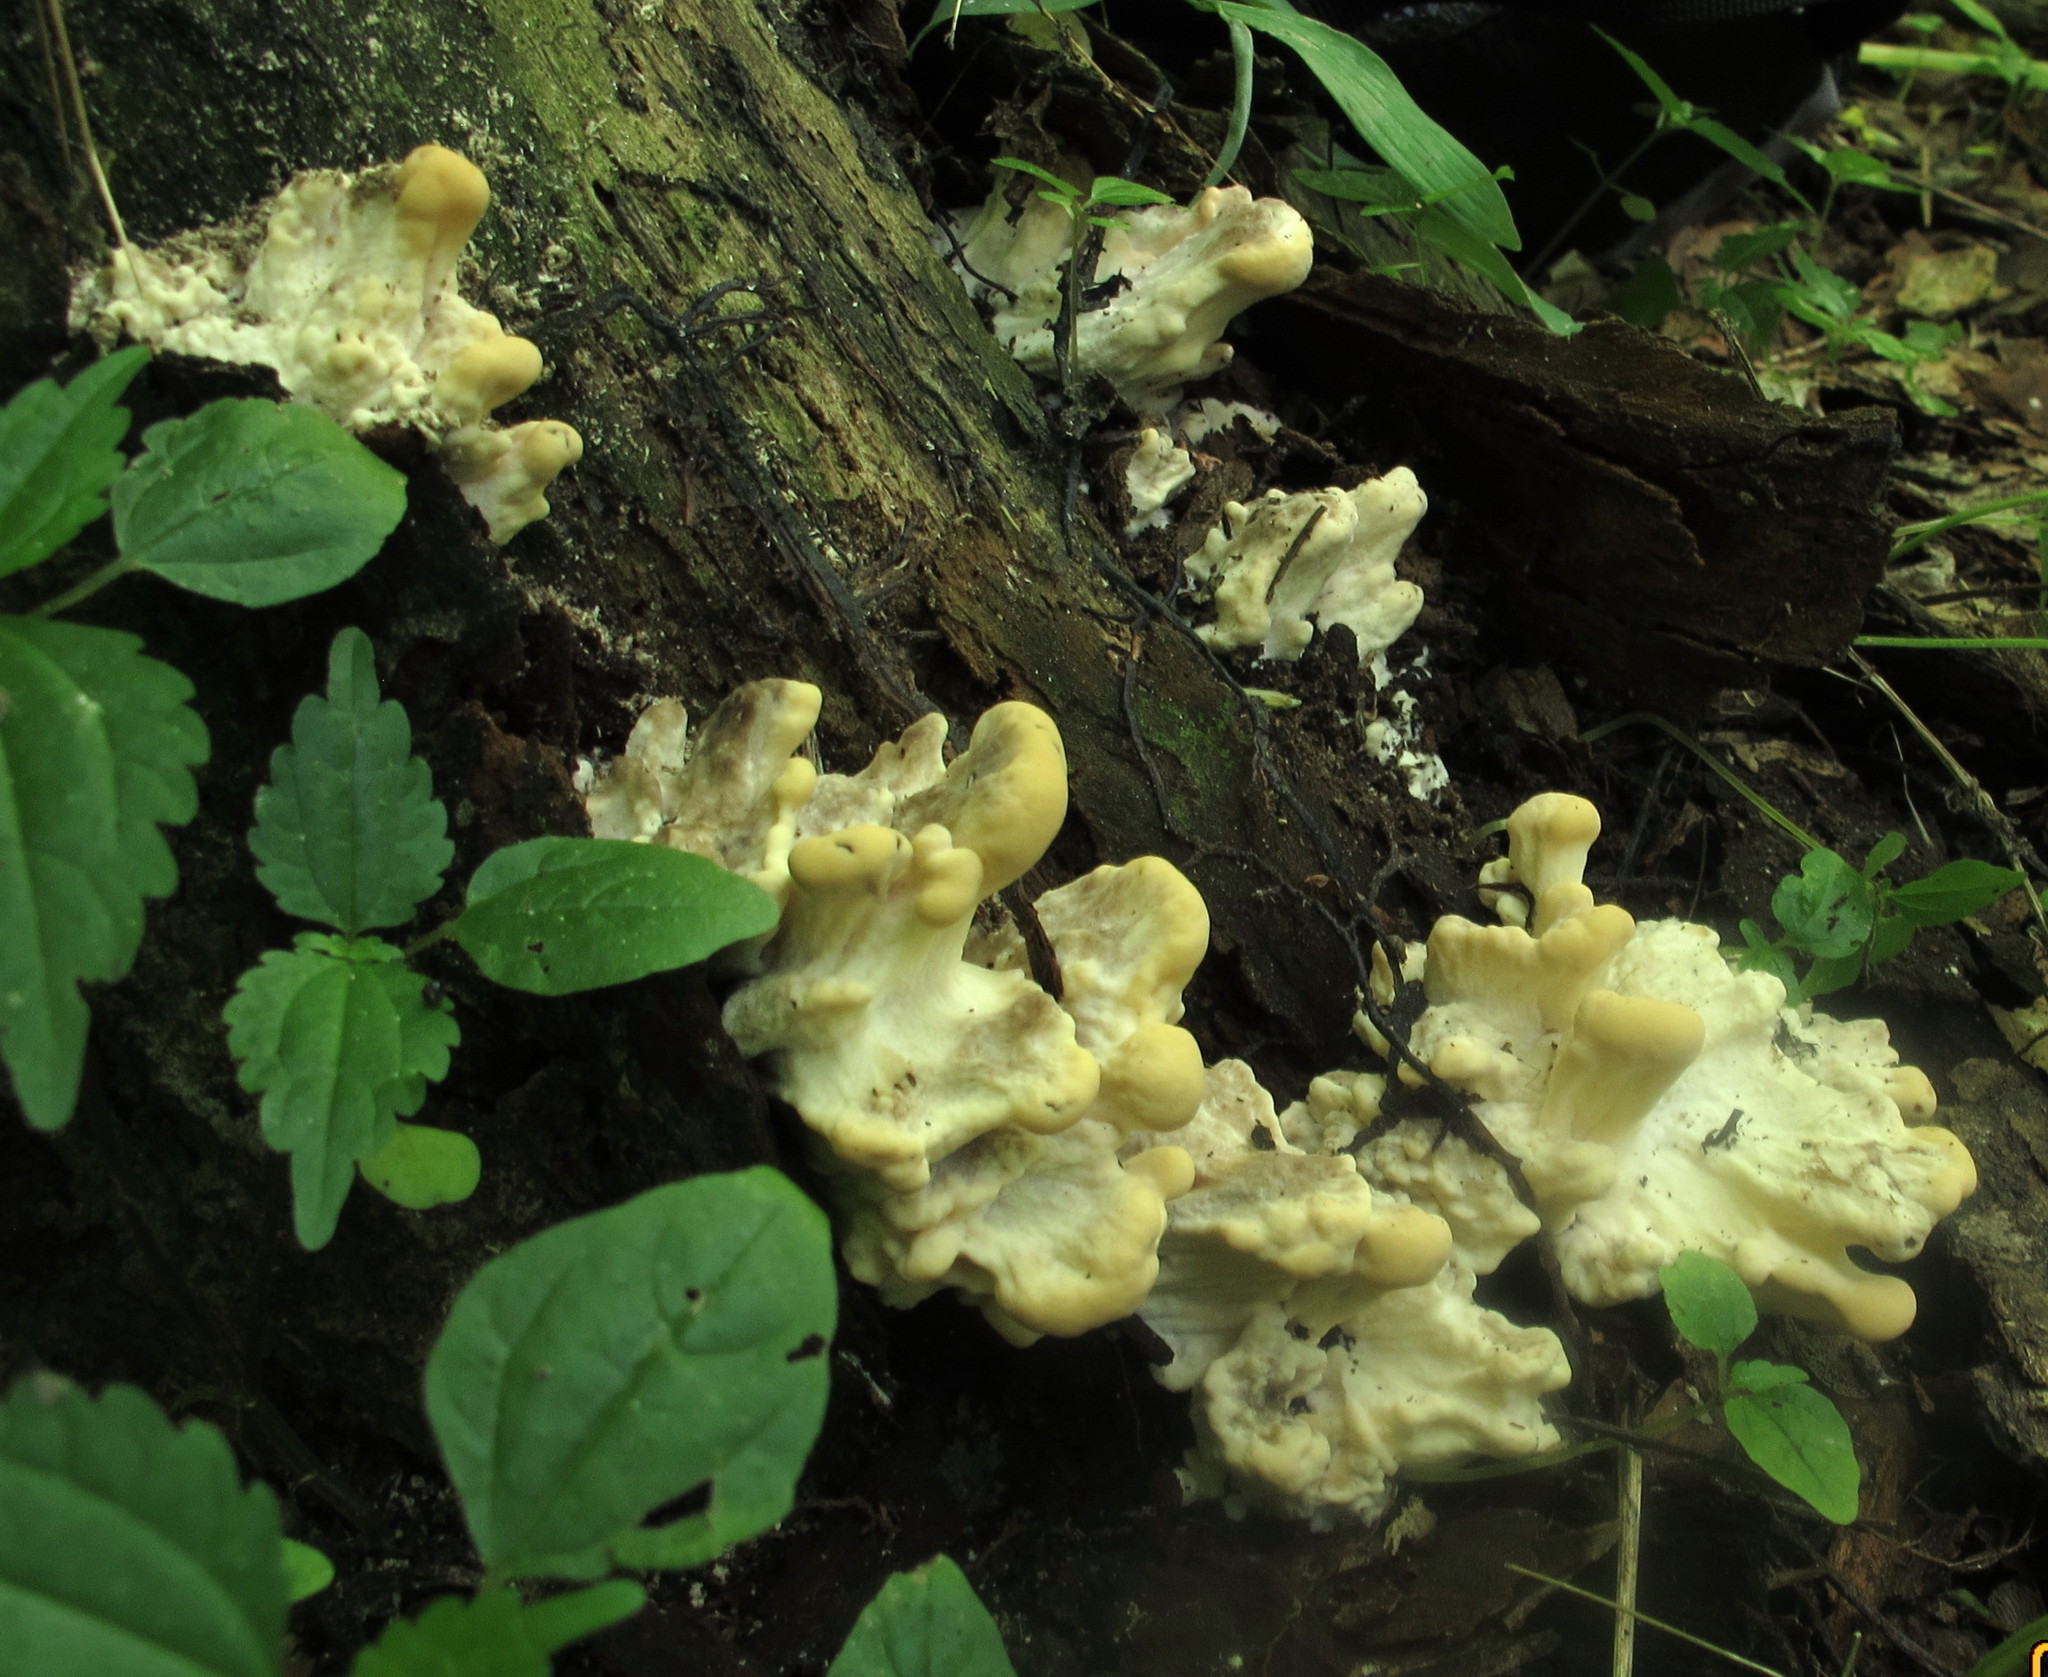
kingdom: Fungi
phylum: Basidiomycota
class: Agaricomycetes
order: Polyporales
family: Meripilaceae
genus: Meripilus
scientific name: Meripilus sumstinei
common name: Black-staining polypore
